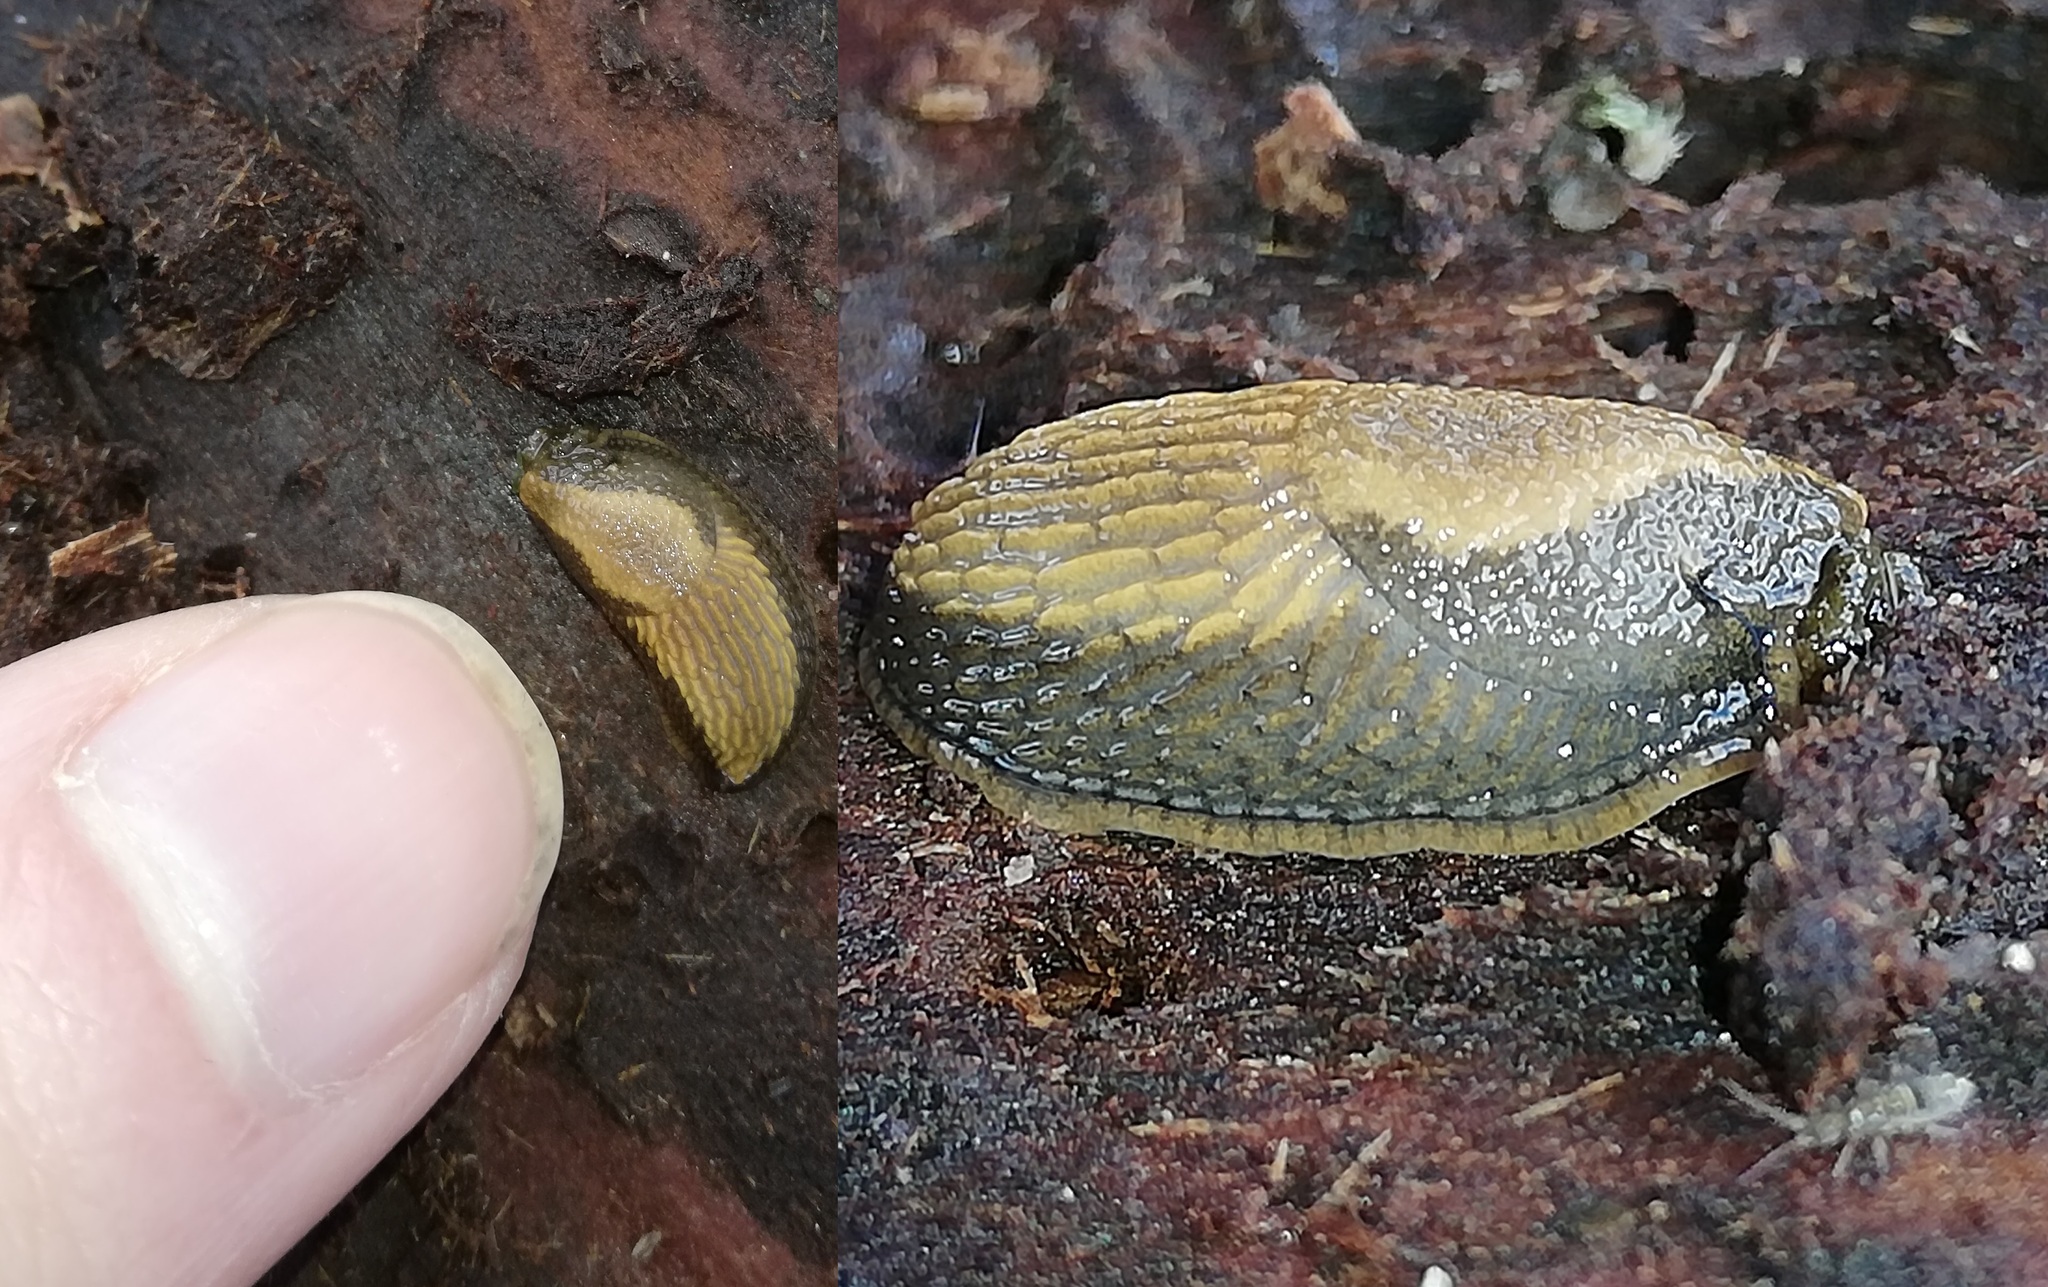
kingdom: Animalia
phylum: Mollusca
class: Gastropoda
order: Stylommatophora
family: Arionidae
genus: Arion
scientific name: Arion vulgaris
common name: Lusitanian slug
